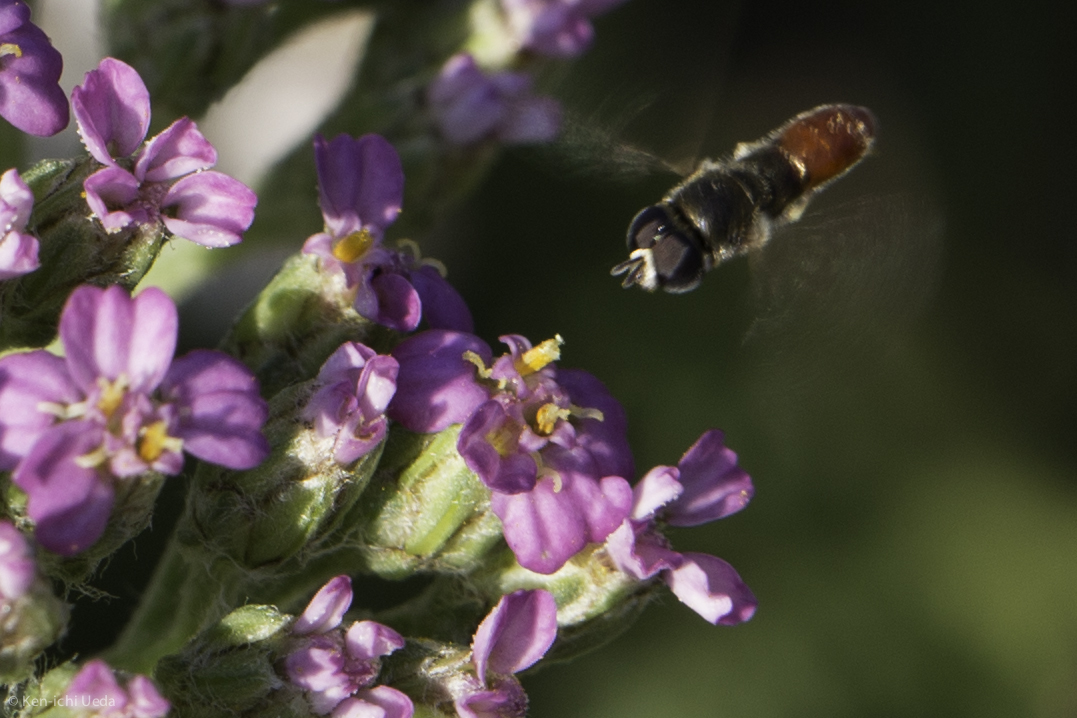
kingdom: Animalia
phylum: Arthropoda
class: Insecta
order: Diptera
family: Syrphidae
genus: Paragus
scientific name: Paragus haemorrhous
